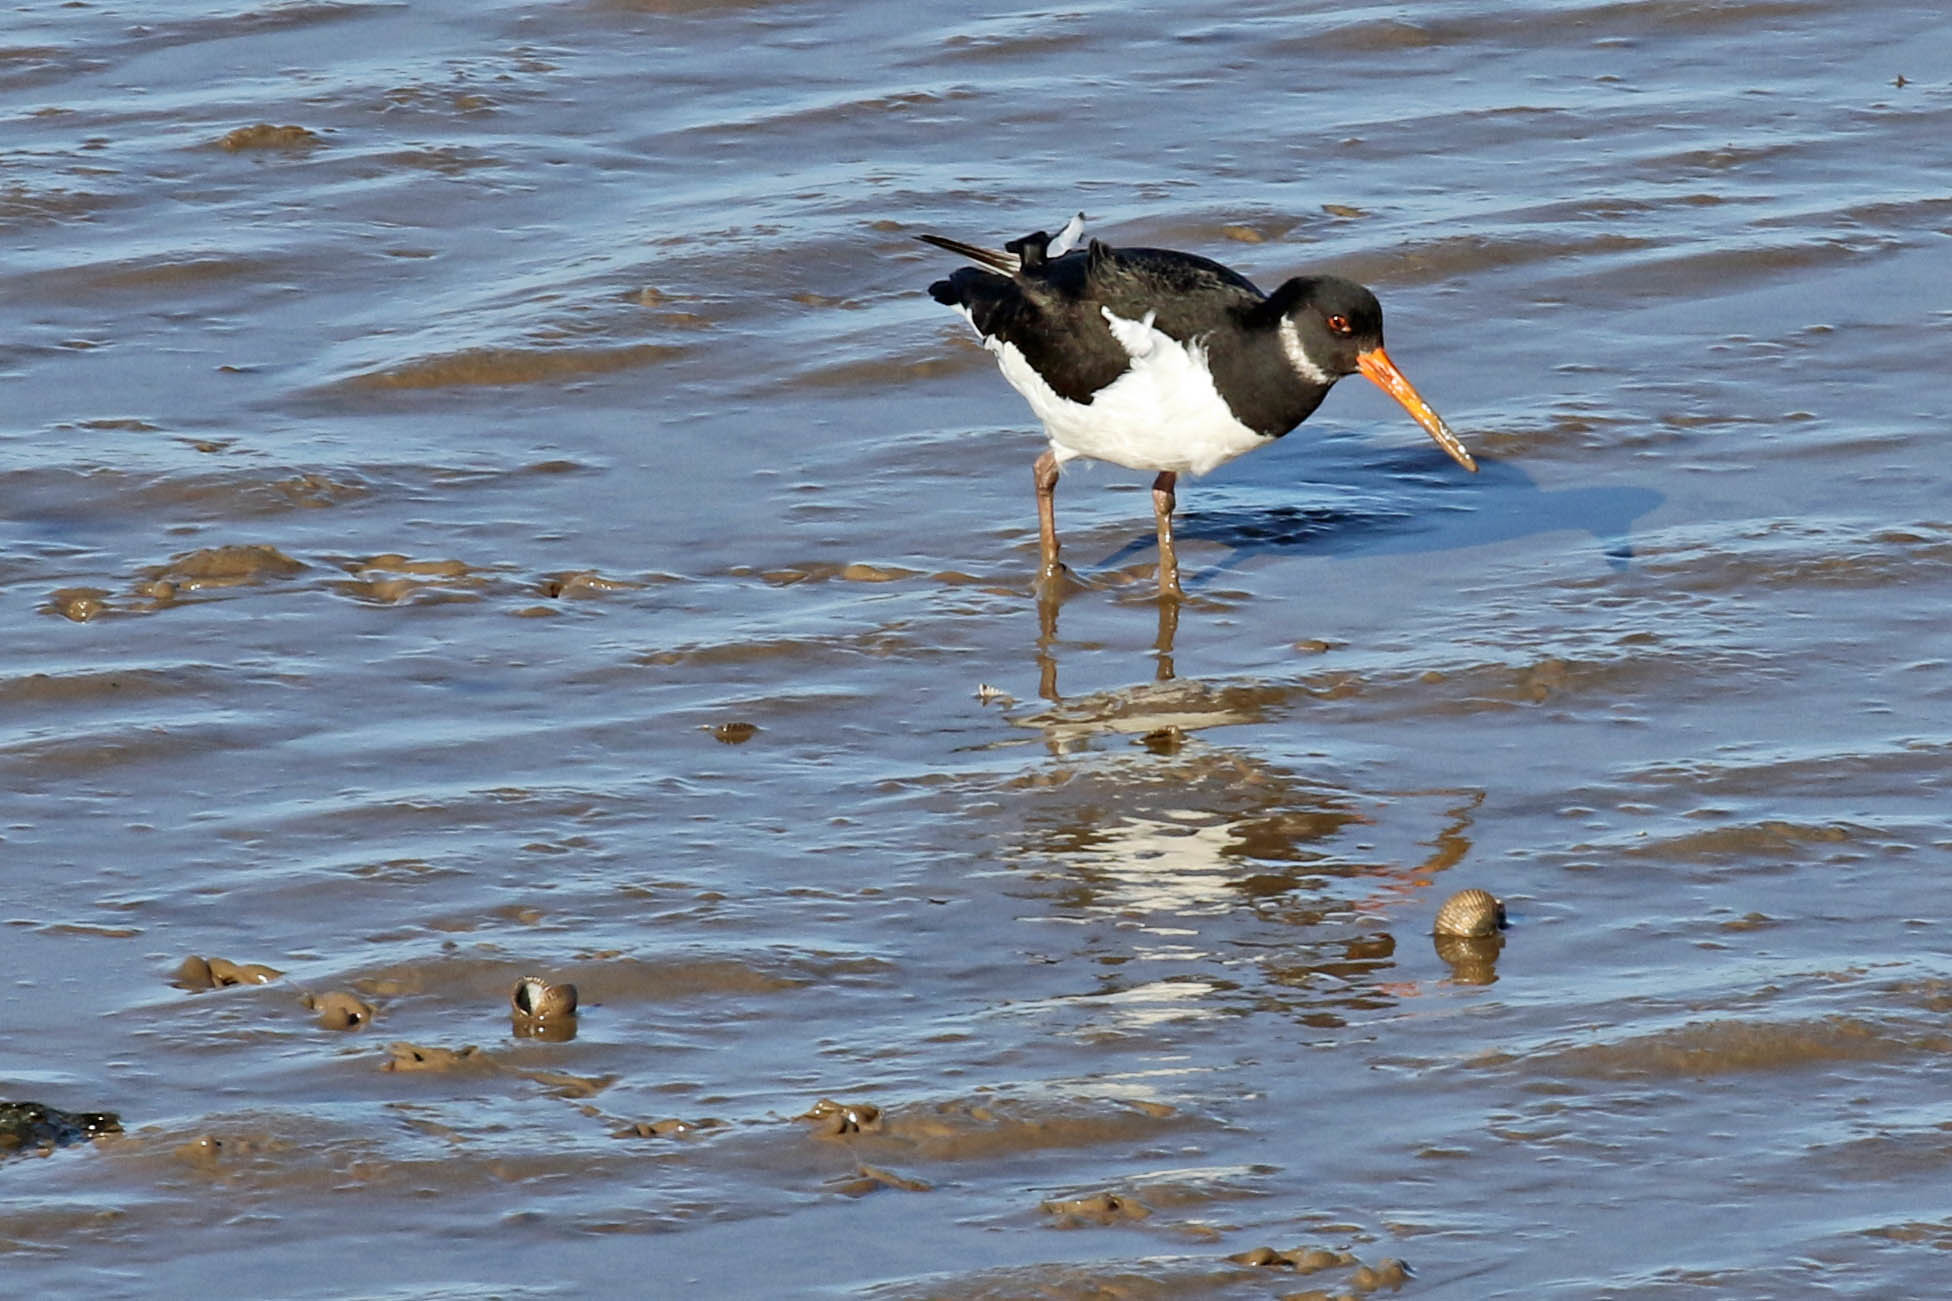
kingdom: Animalia
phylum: Chordata
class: Aves
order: Charadriiformes
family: Haematopodidae
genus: Haematopus
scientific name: Haematopus ostralegus
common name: Eurasian oystercatcher
